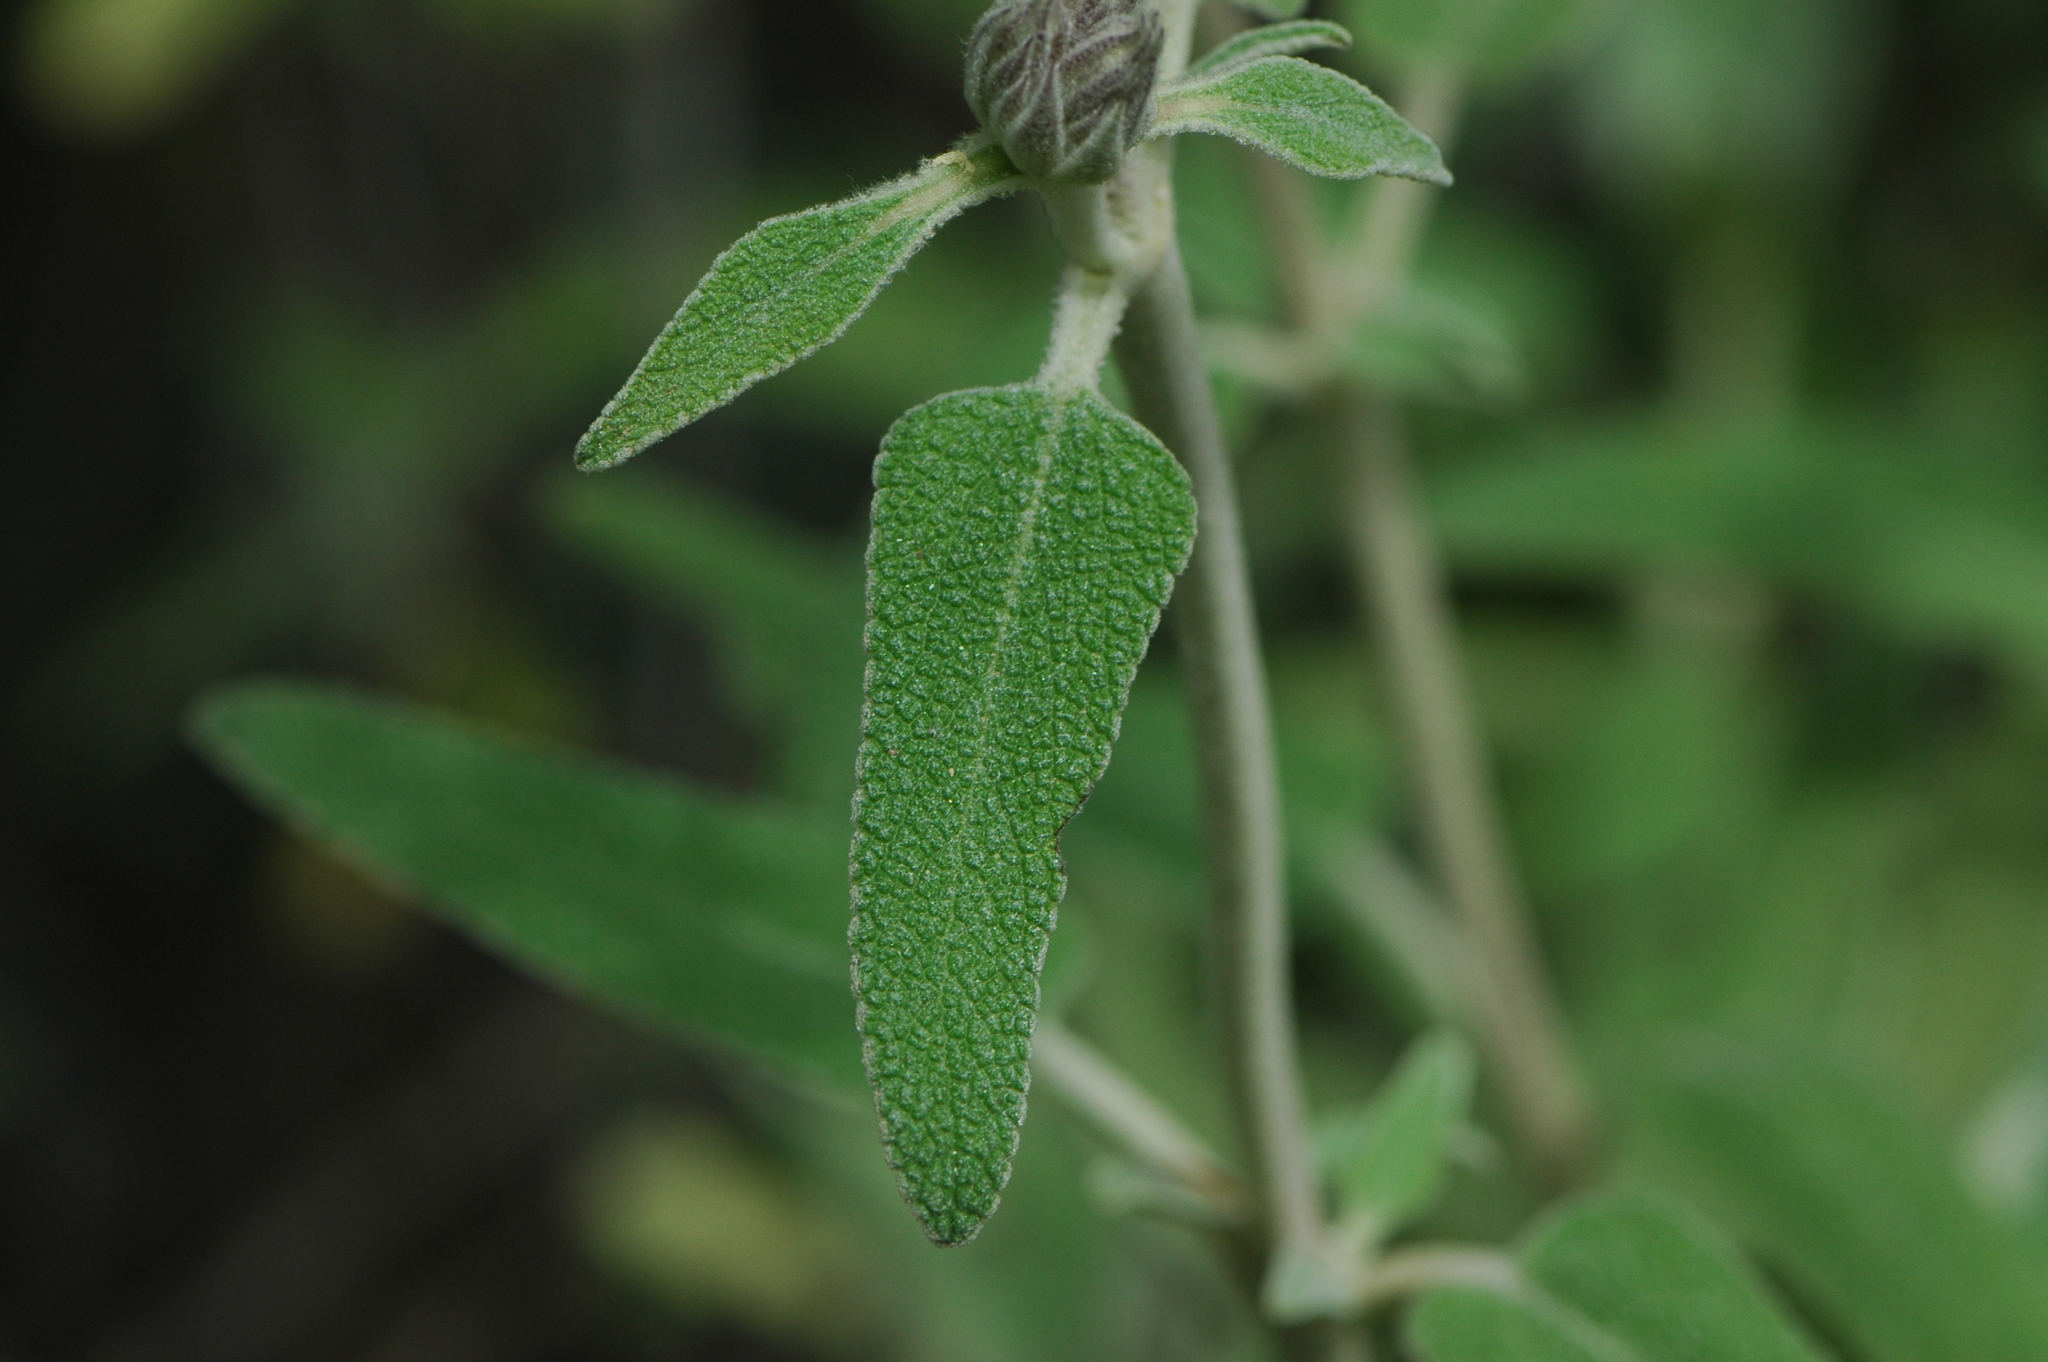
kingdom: Plantae
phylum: Tracheophyta
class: Magnoliopsida
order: Lamiales
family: Lamiaceae
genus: Phlomis
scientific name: Phlomis purpurea
